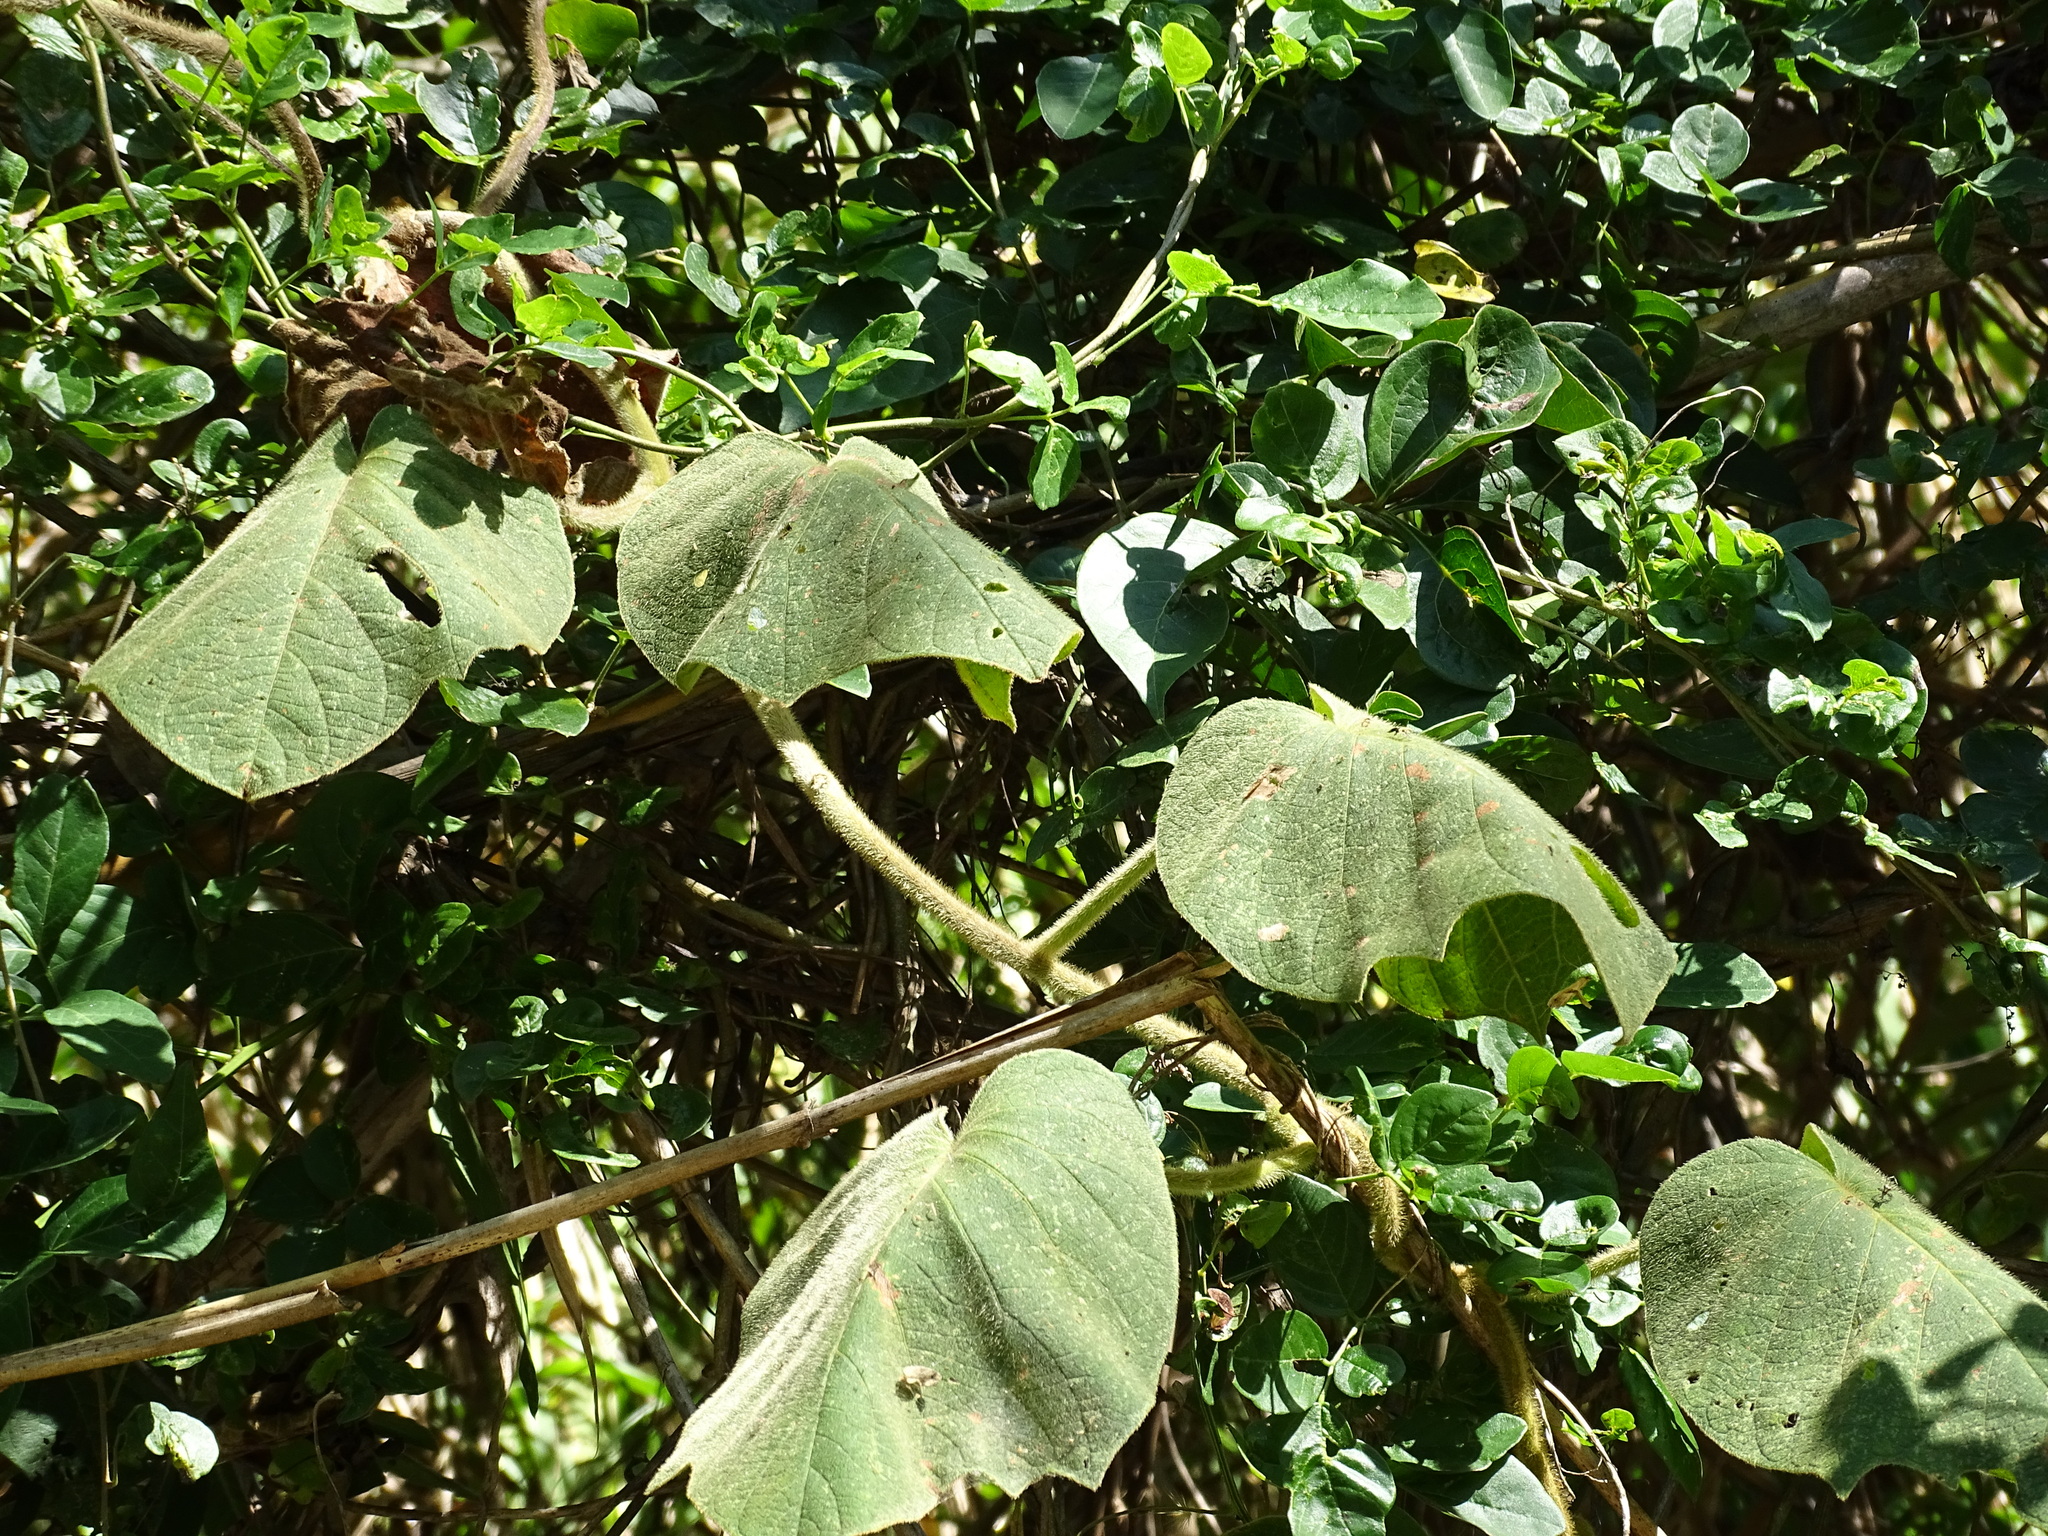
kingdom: Plantae
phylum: Tracheophyta
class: Magnoliopsida
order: Solanales
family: Convolvulaceae
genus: Ipomoea
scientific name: Ipomoea villifera
